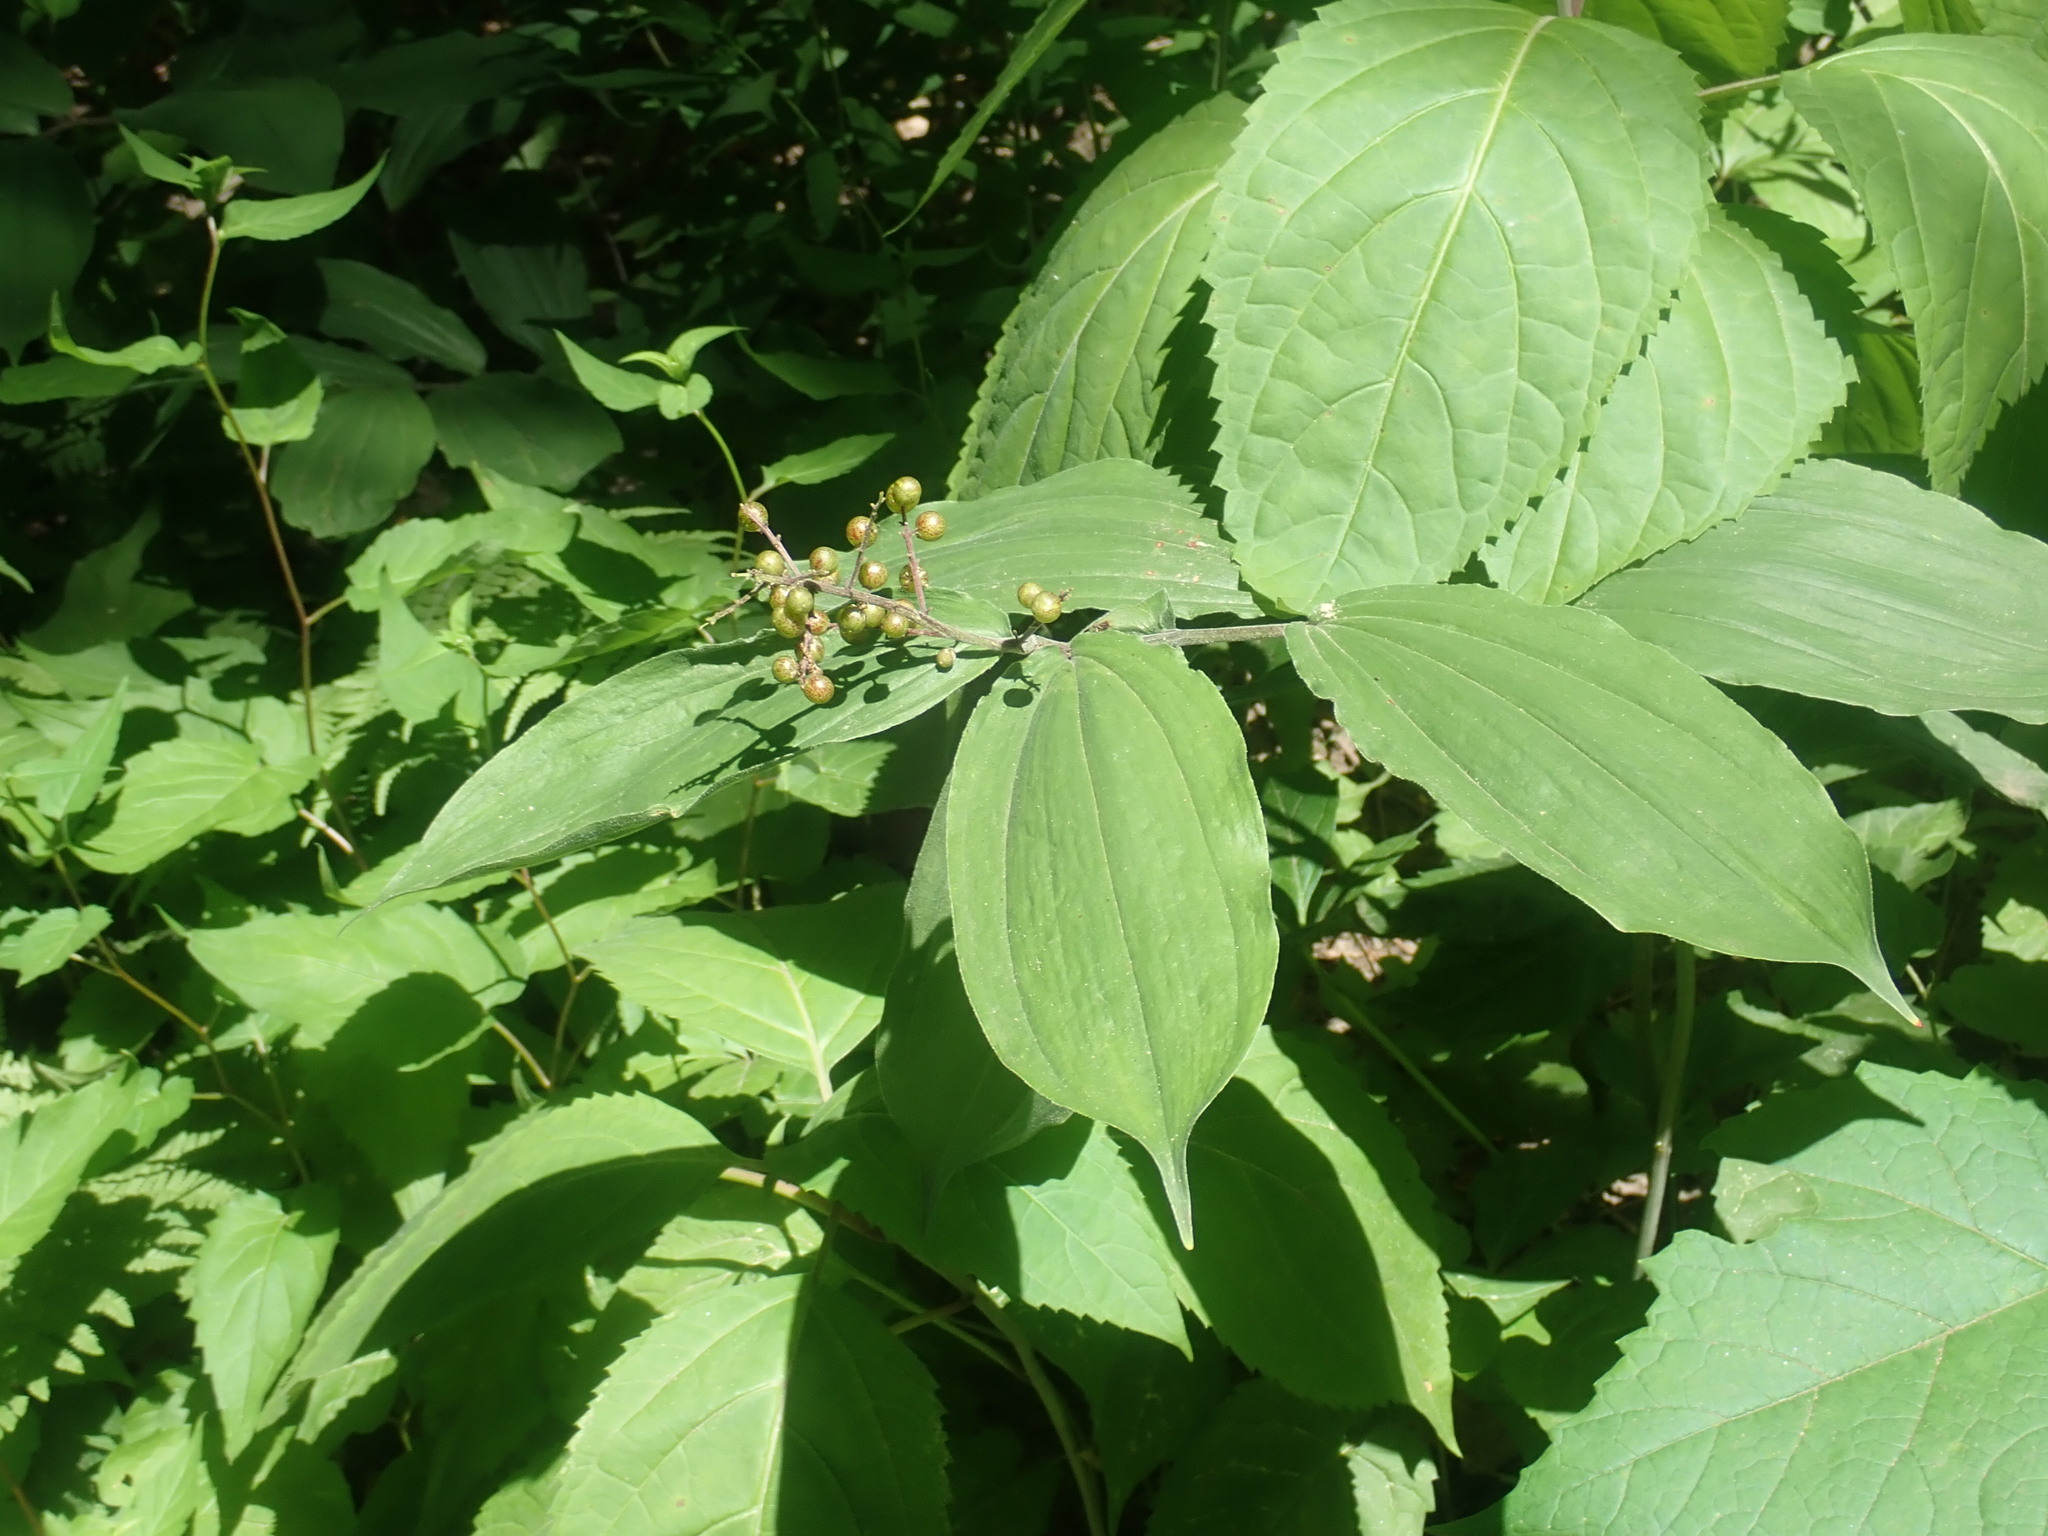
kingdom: Plantae
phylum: Tracheophyta
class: Liliopsida
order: Asparagales
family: Asparagaceae
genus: Maianthemum
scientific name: Maianthemum racemosum
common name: False spikenard
